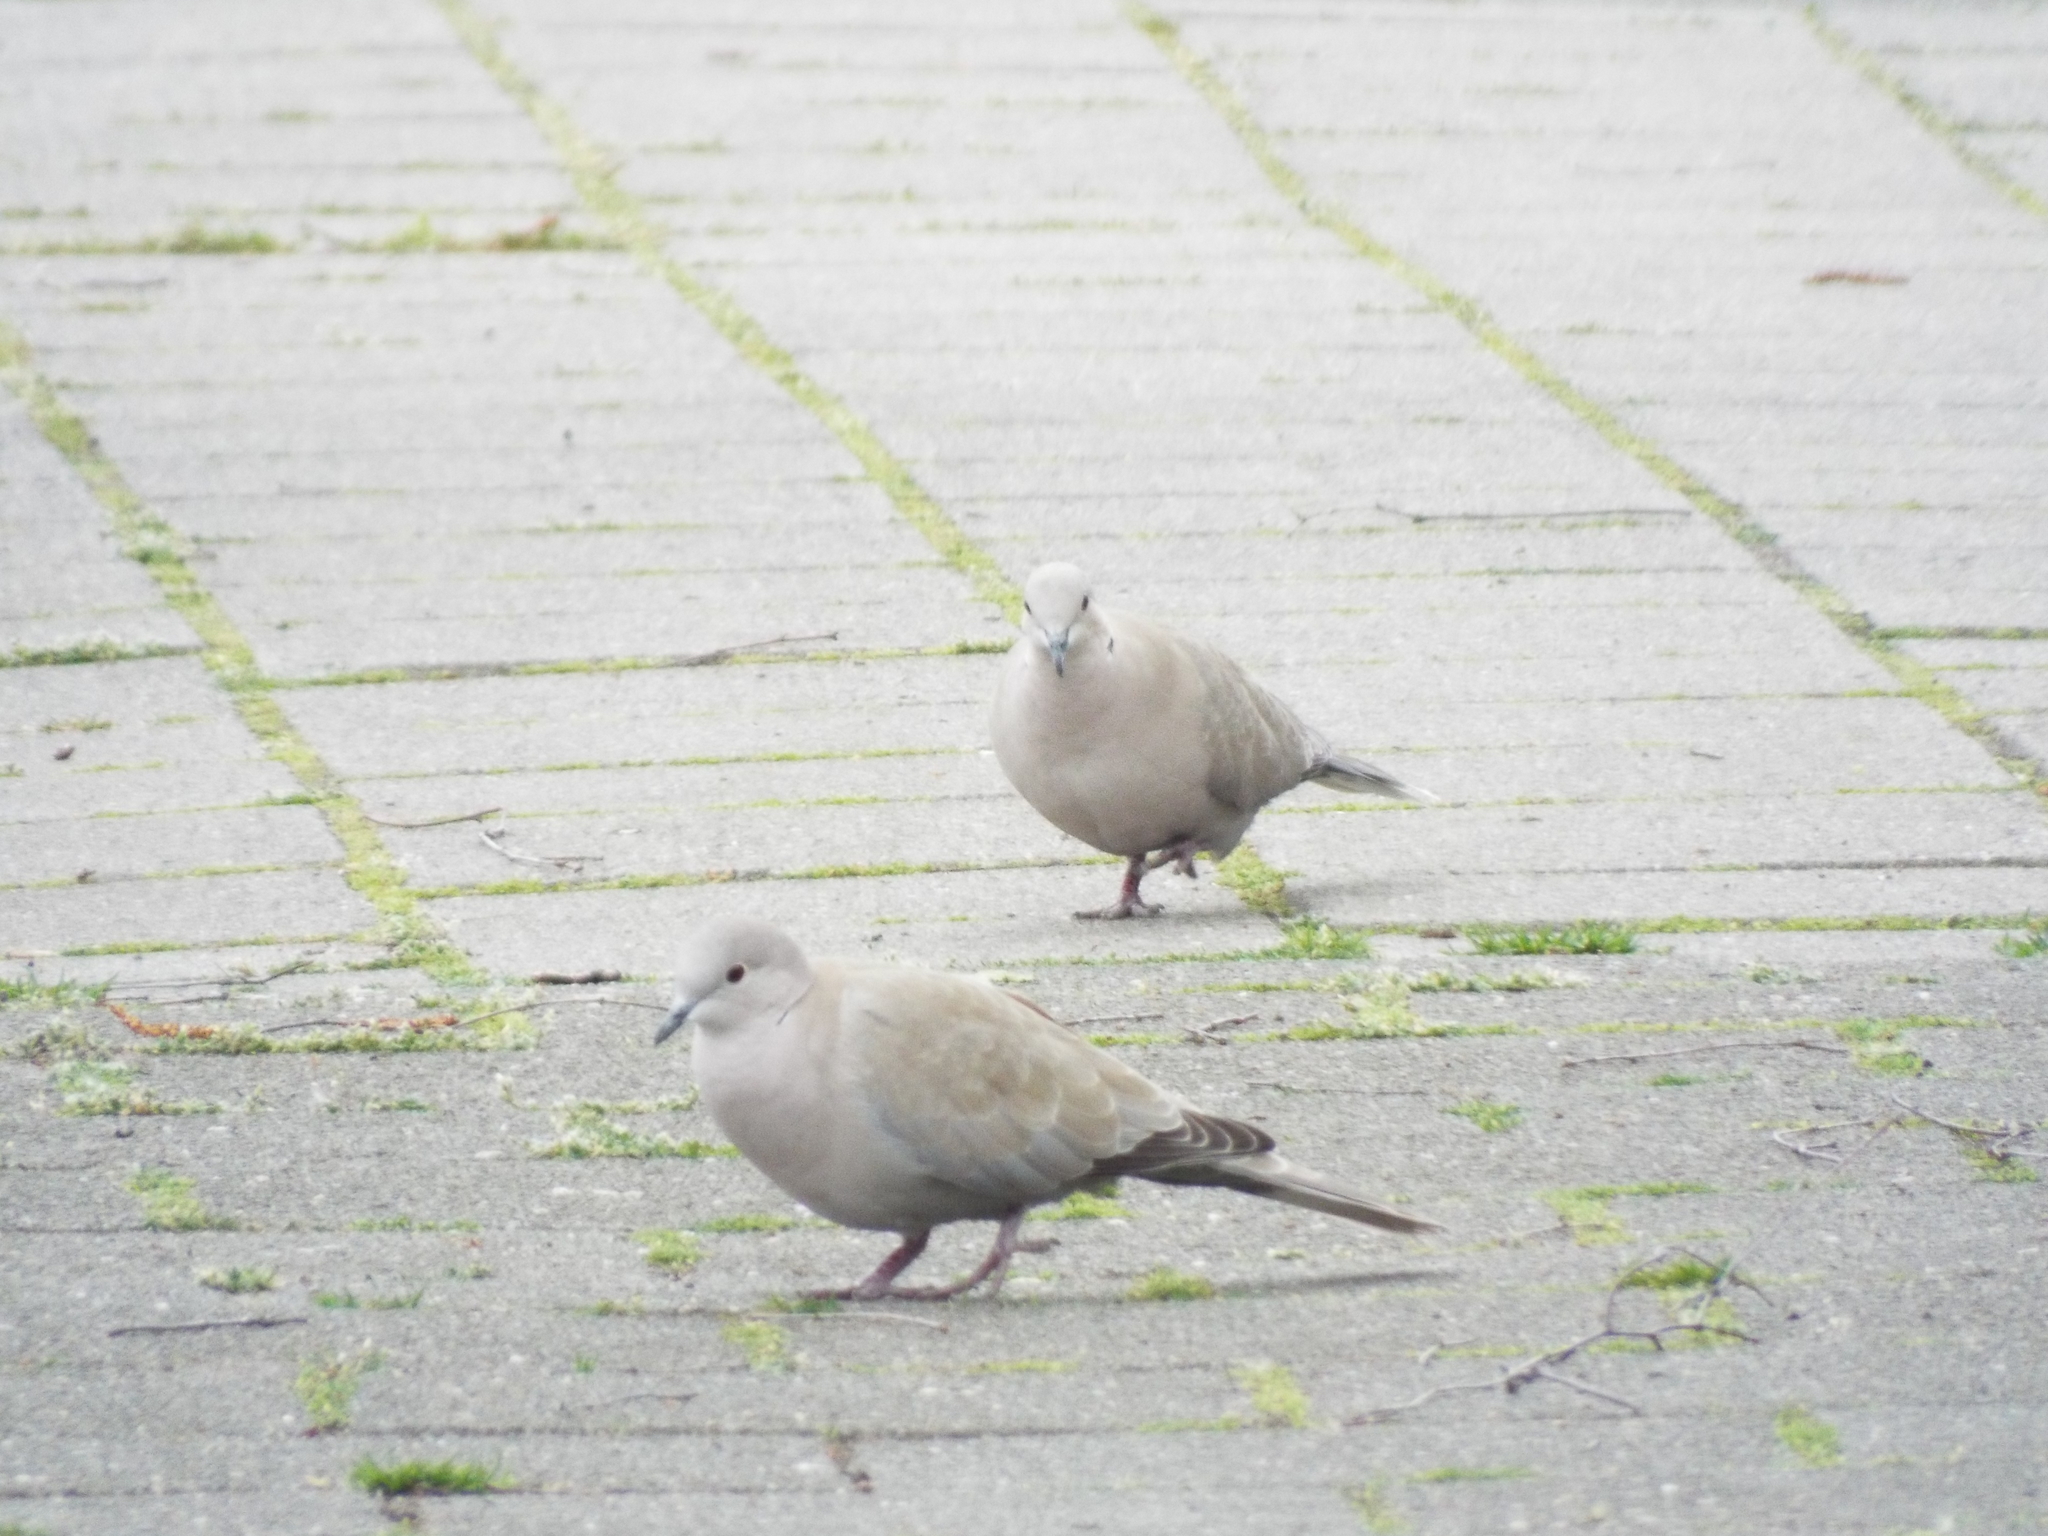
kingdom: Animalia
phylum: Chordata
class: Aves
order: Columbiformes
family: Columbidae
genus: Streptopelia
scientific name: Streptopelia decaocto
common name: Eurasian collared dove
